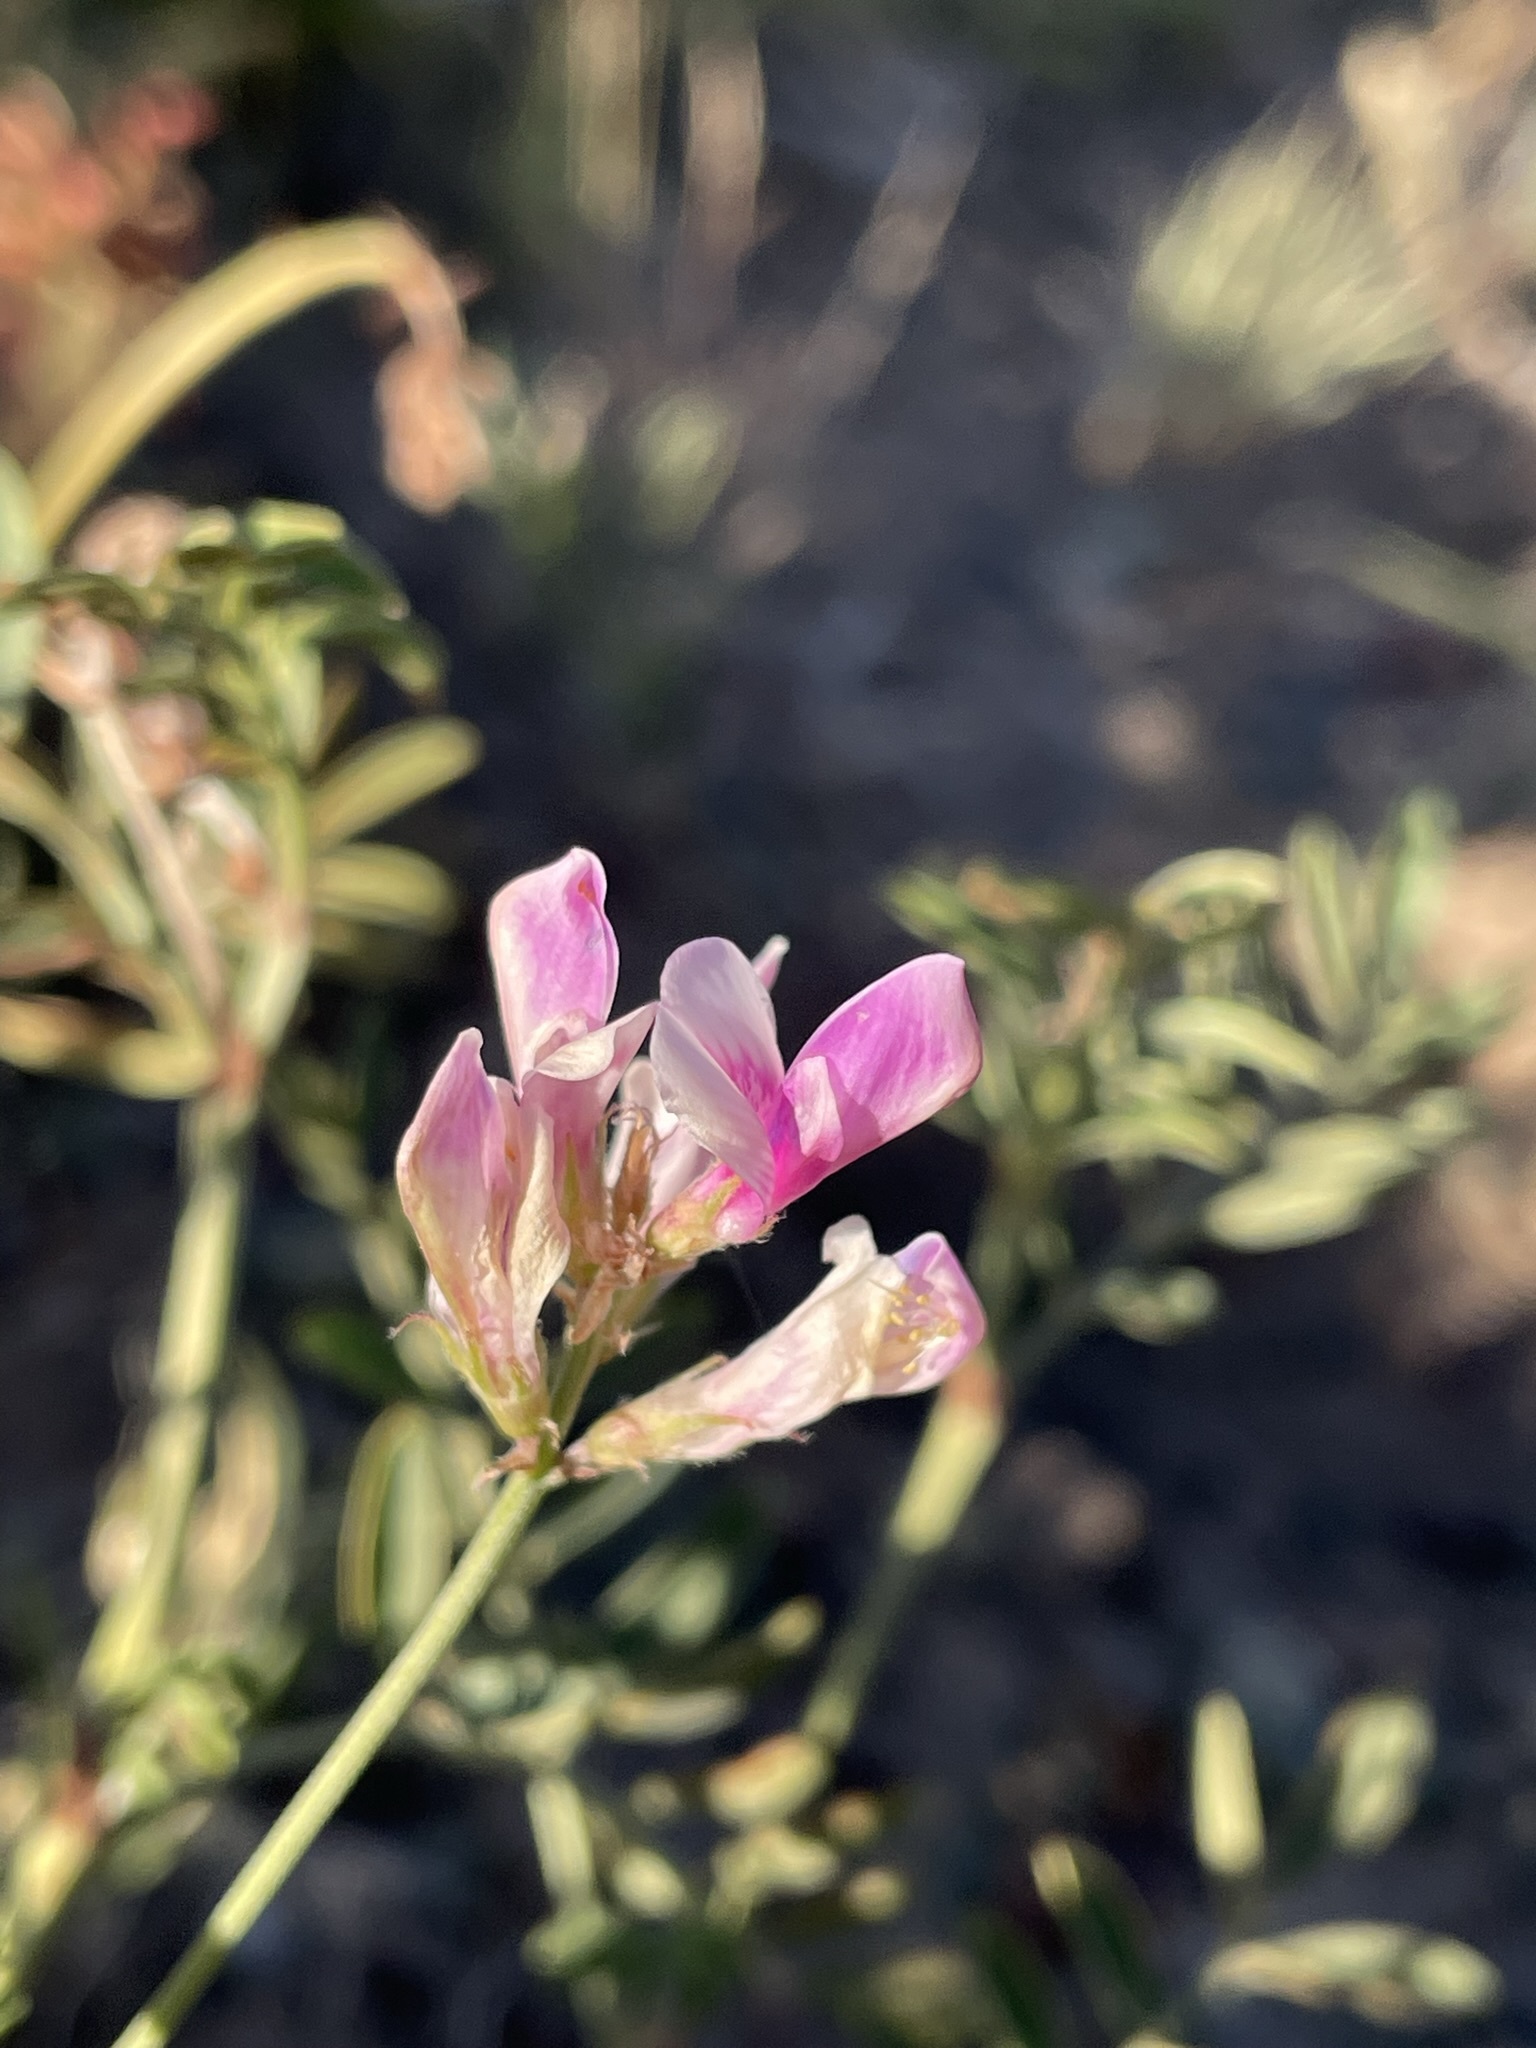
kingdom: Plantae
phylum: Tracheophyta
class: Magnoliopsida
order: Fabales
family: Fabaceae
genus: Hedysarum
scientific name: Hedysarum boreale
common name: Northern sweet-vetch
